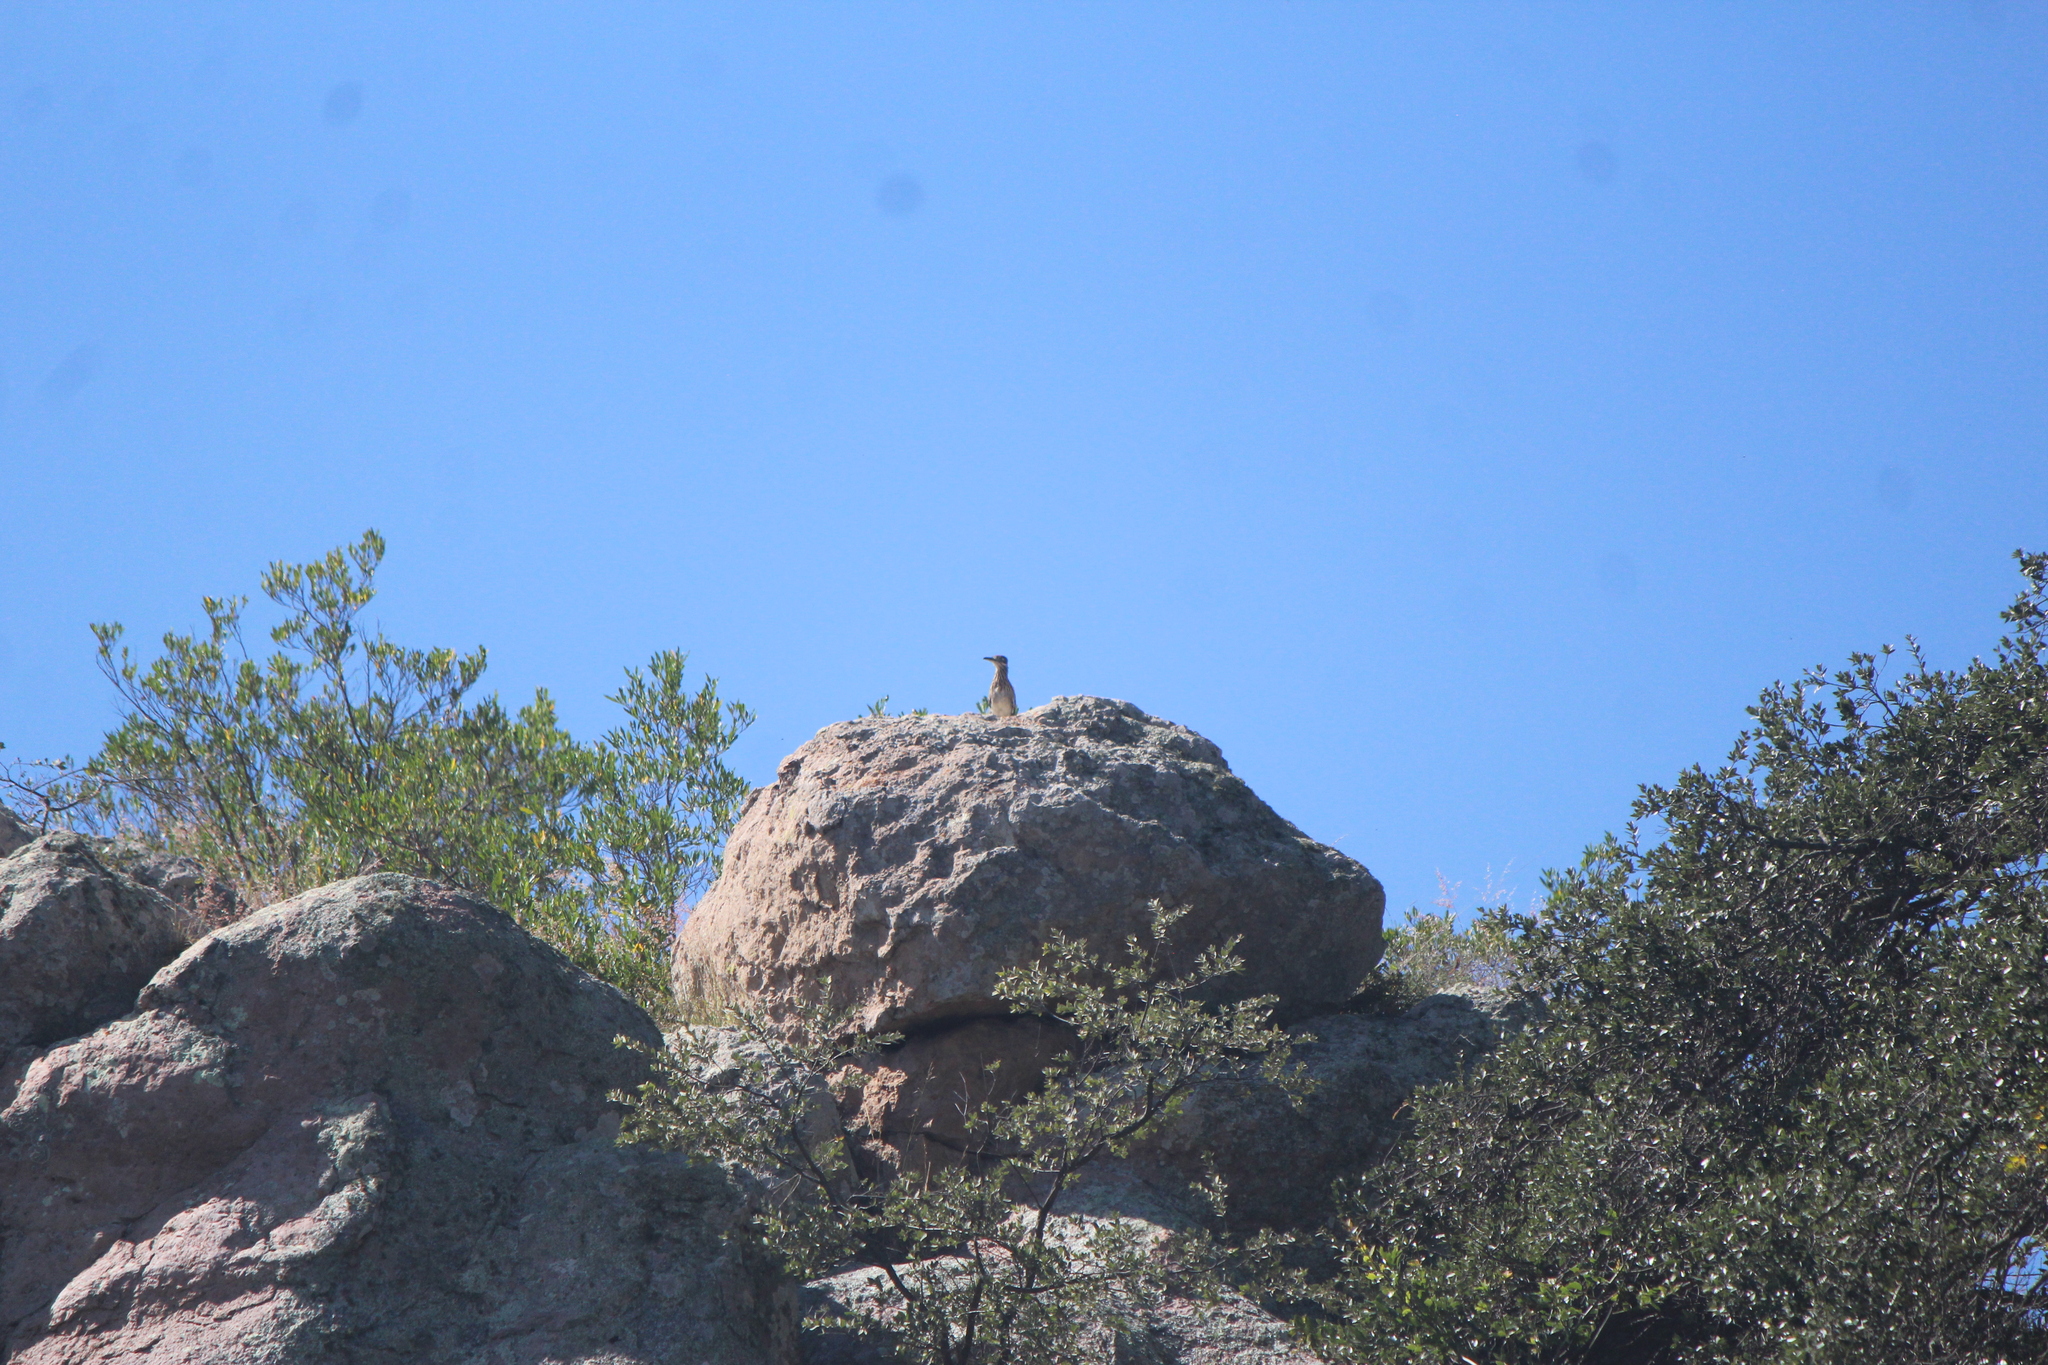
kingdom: Animalia
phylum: Chordata
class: Aves
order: Cuculiformes
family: Cuculidae
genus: Geococcyx
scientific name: Geococcyx californianus
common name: Greater roadrunner
